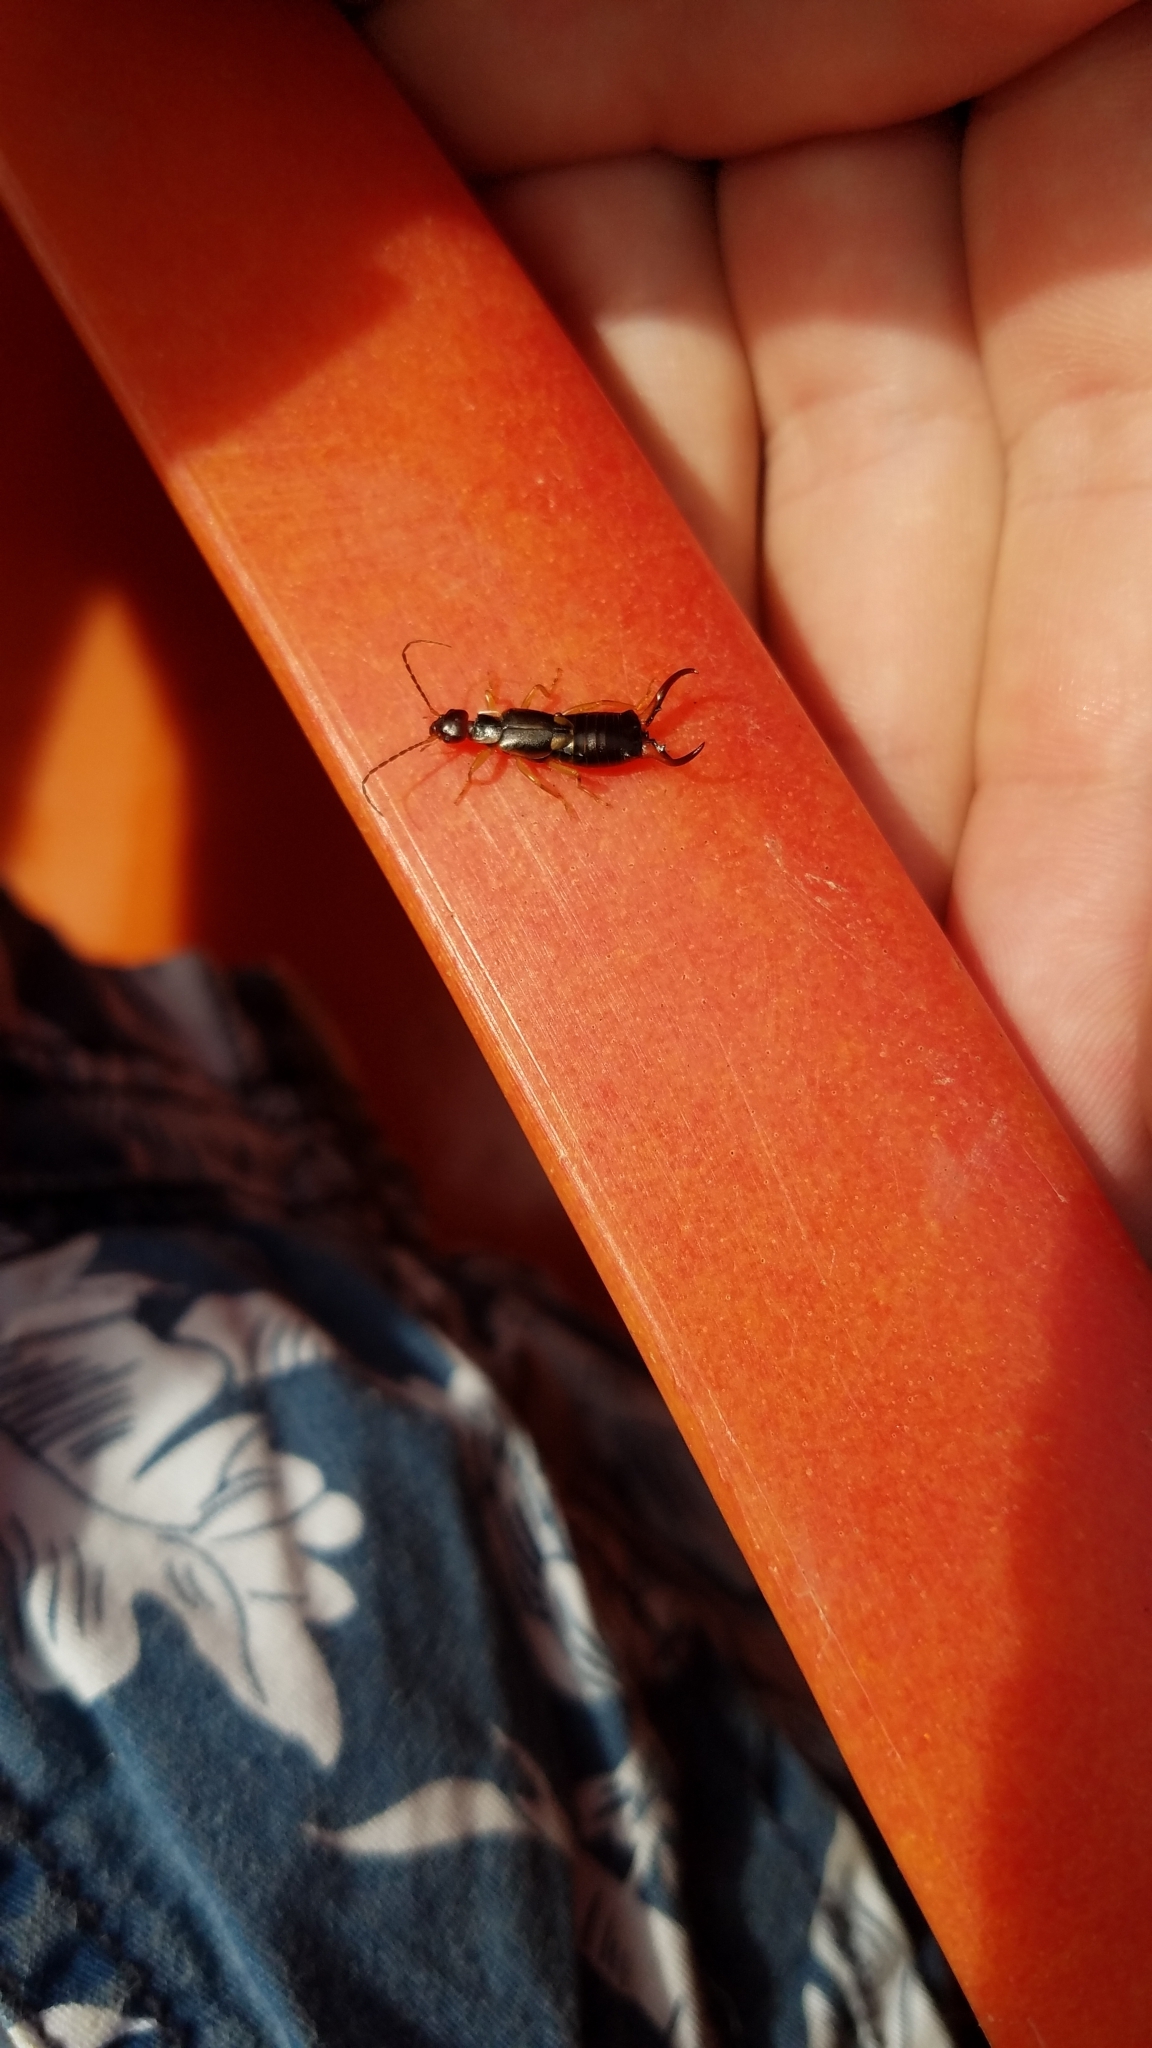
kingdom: Animalia
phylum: Arthropoda
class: Insecta
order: Dermaptera
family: Forficulidae
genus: Forficula
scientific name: Forficula
